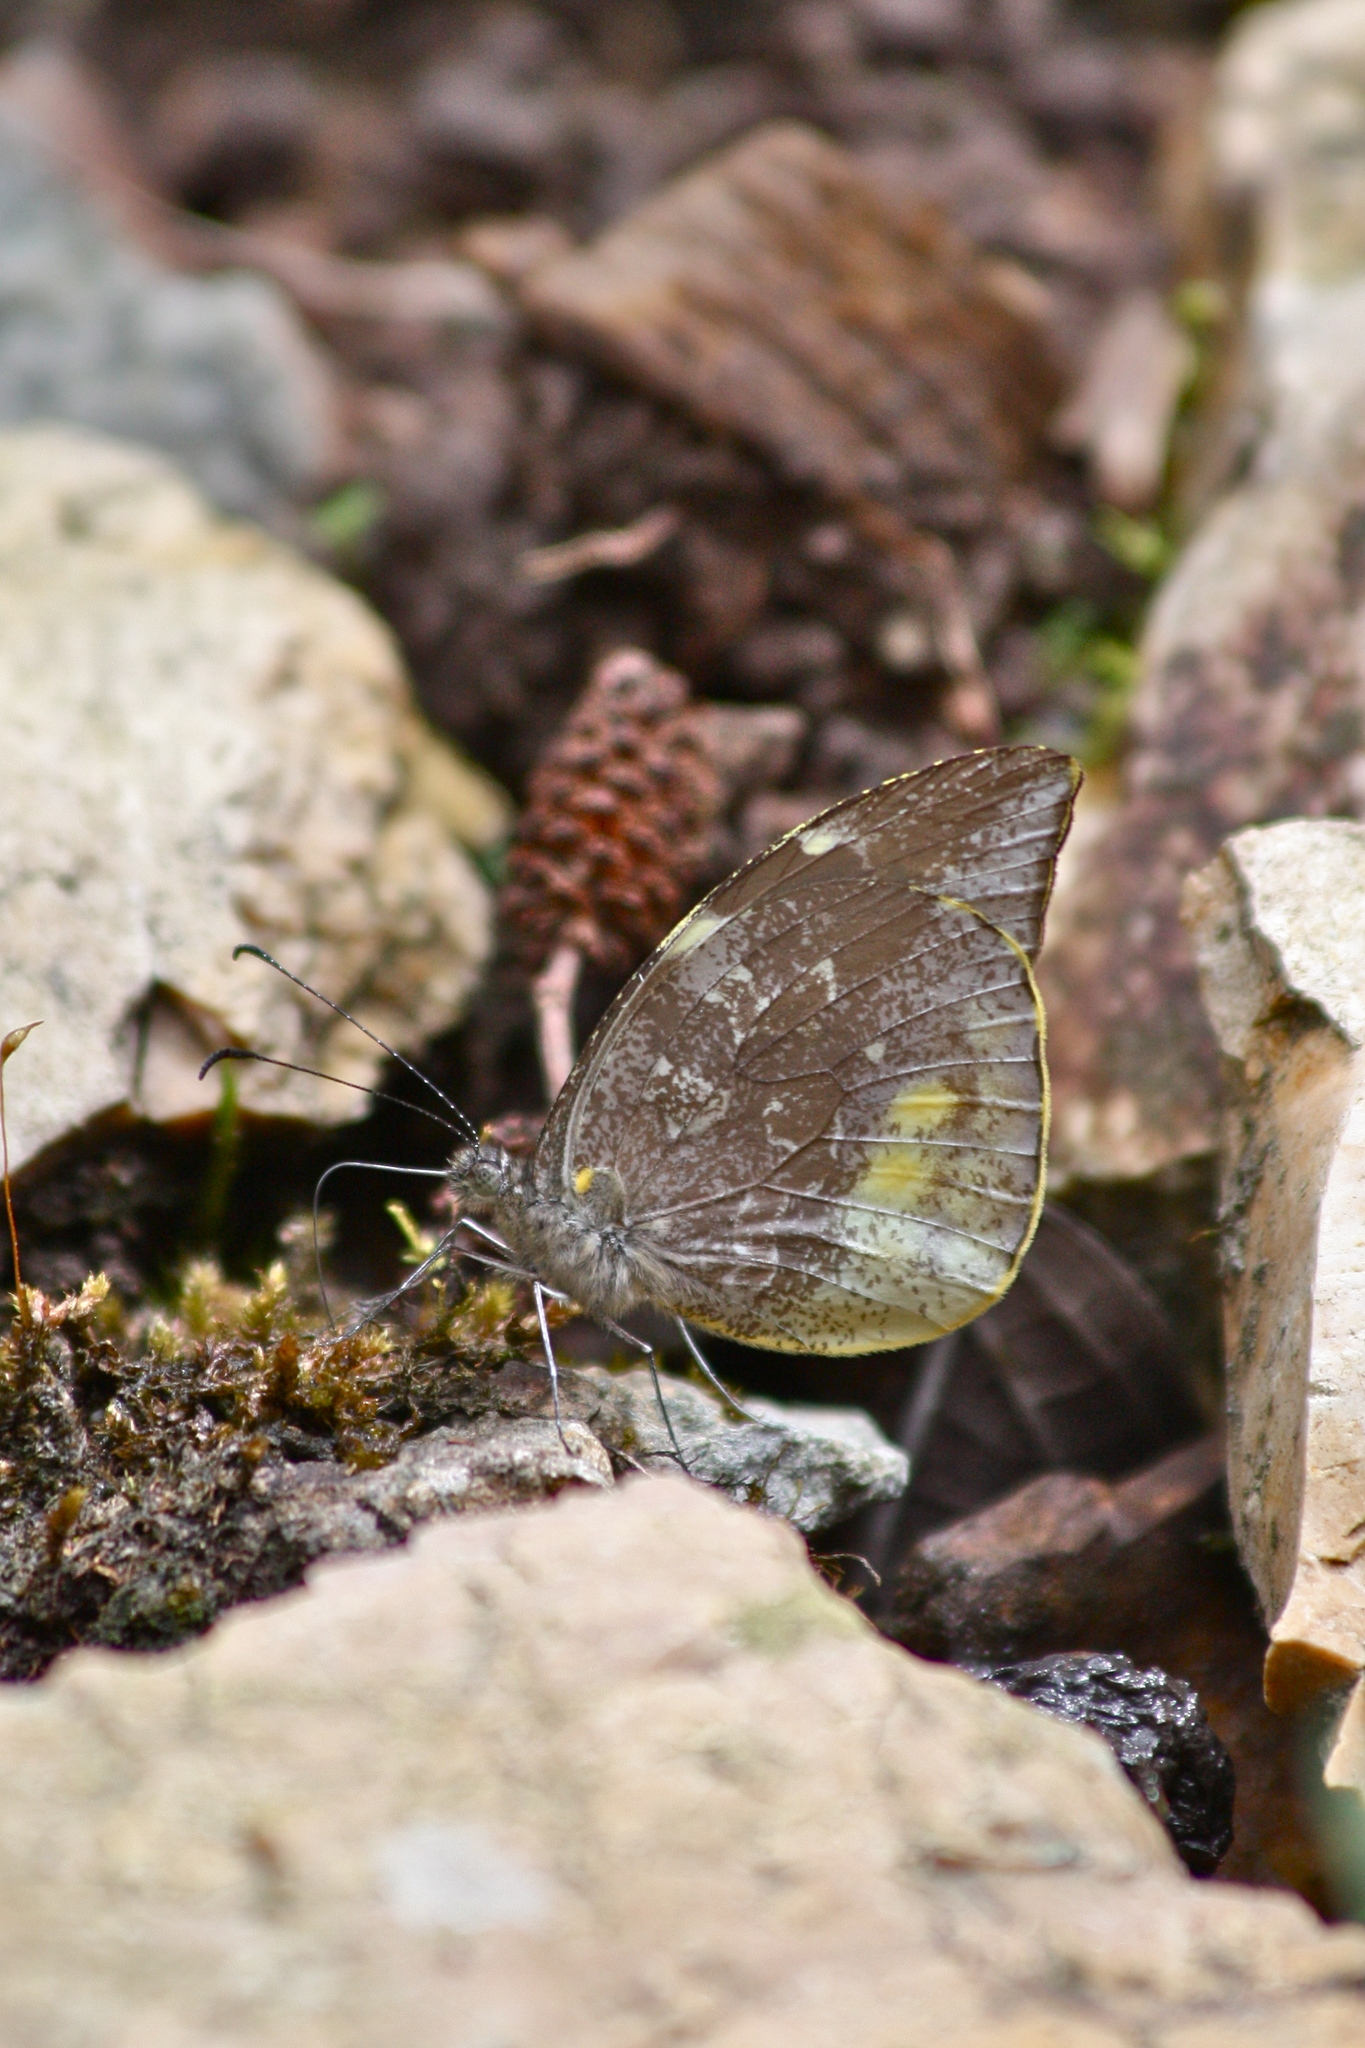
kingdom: Animalia
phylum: Arthropoda
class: Insecta
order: Lepidoptera
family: Pieridae
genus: Lieinix
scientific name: Lieinix nemesis
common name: Frosted mimic-white
